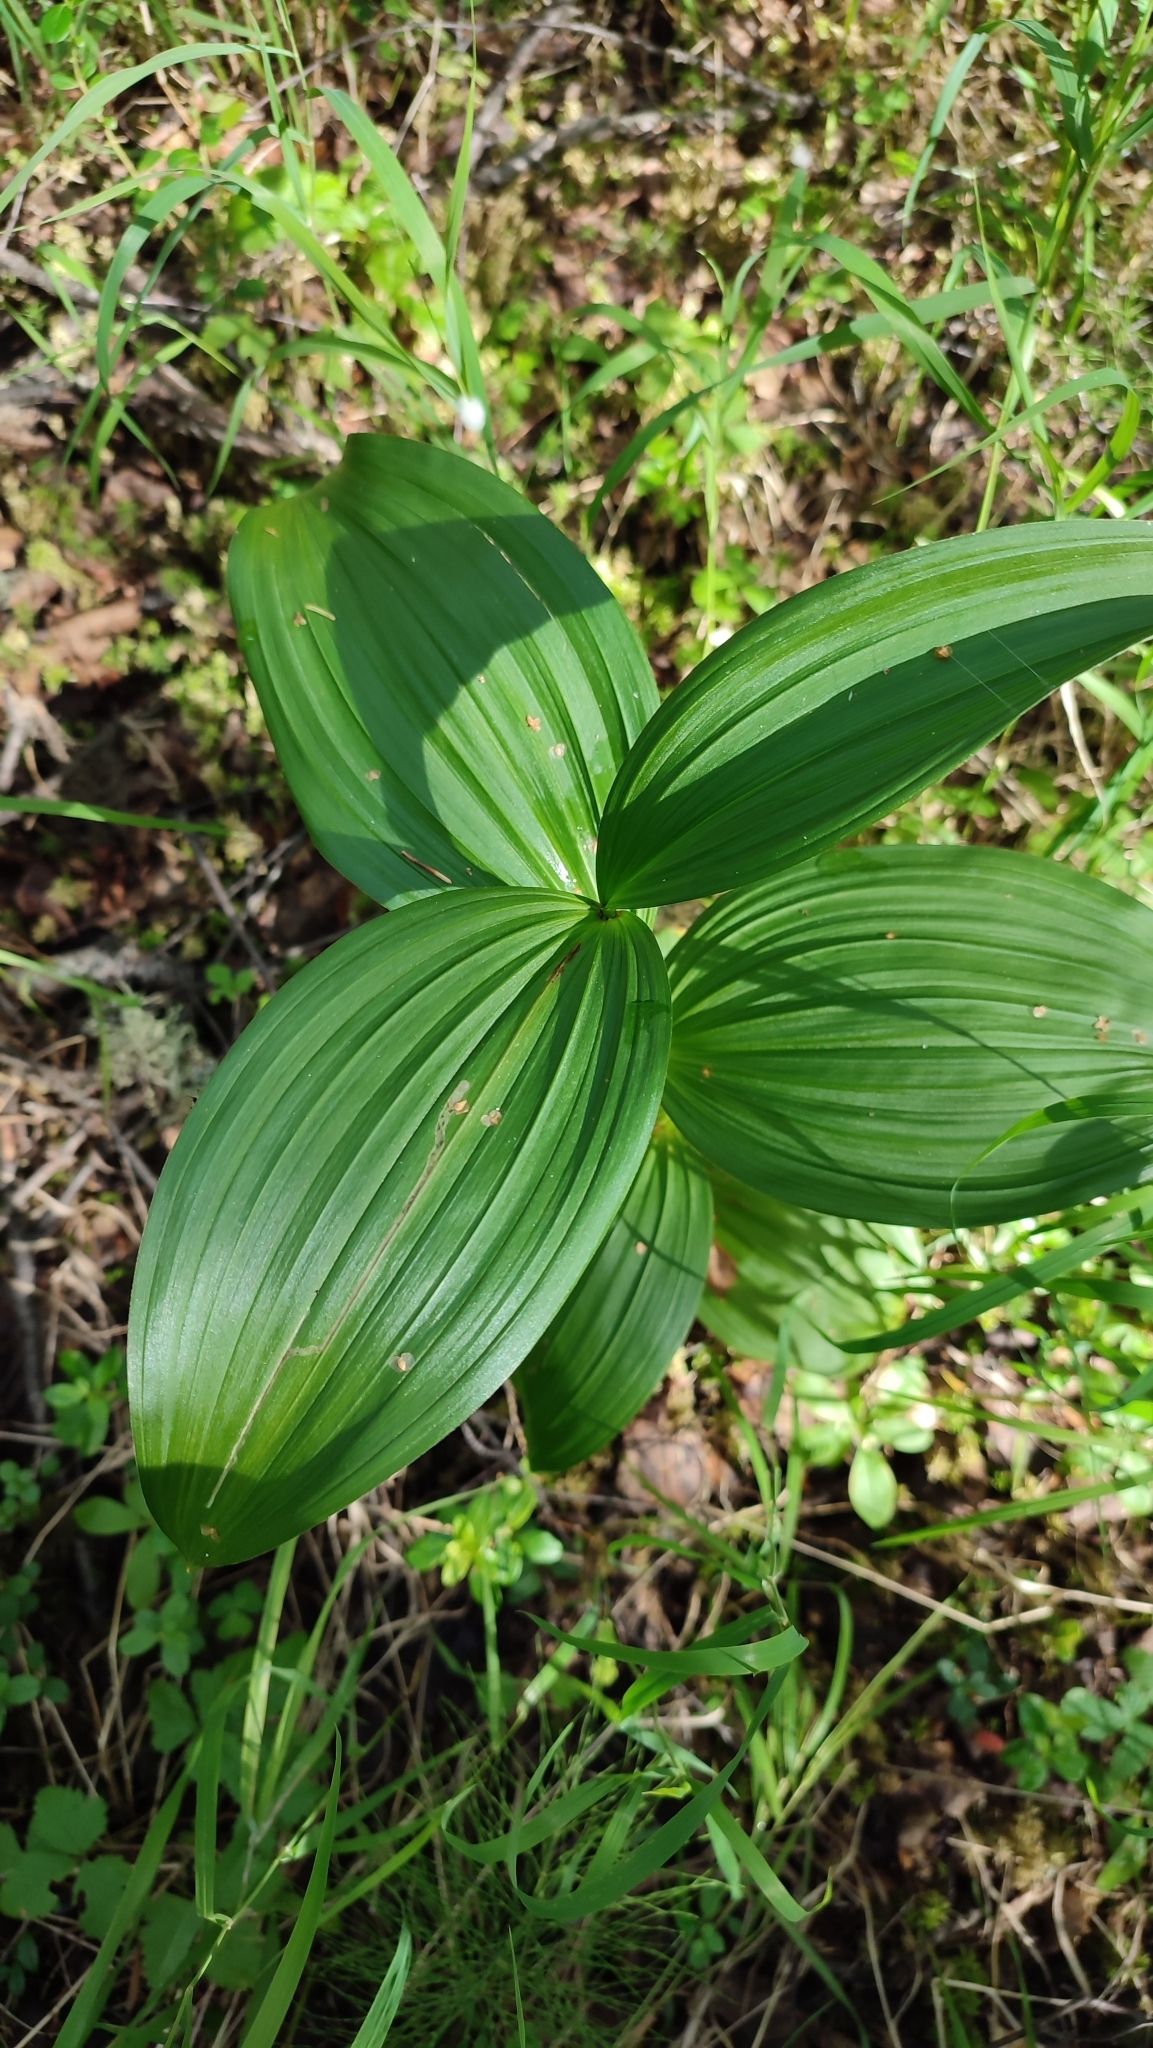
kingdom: Plantae
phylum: Tracheophyta
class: Liliopsida
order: Liliales
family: Melanthiaceae
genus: Veratrum
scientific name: Veratrum lobelianum
